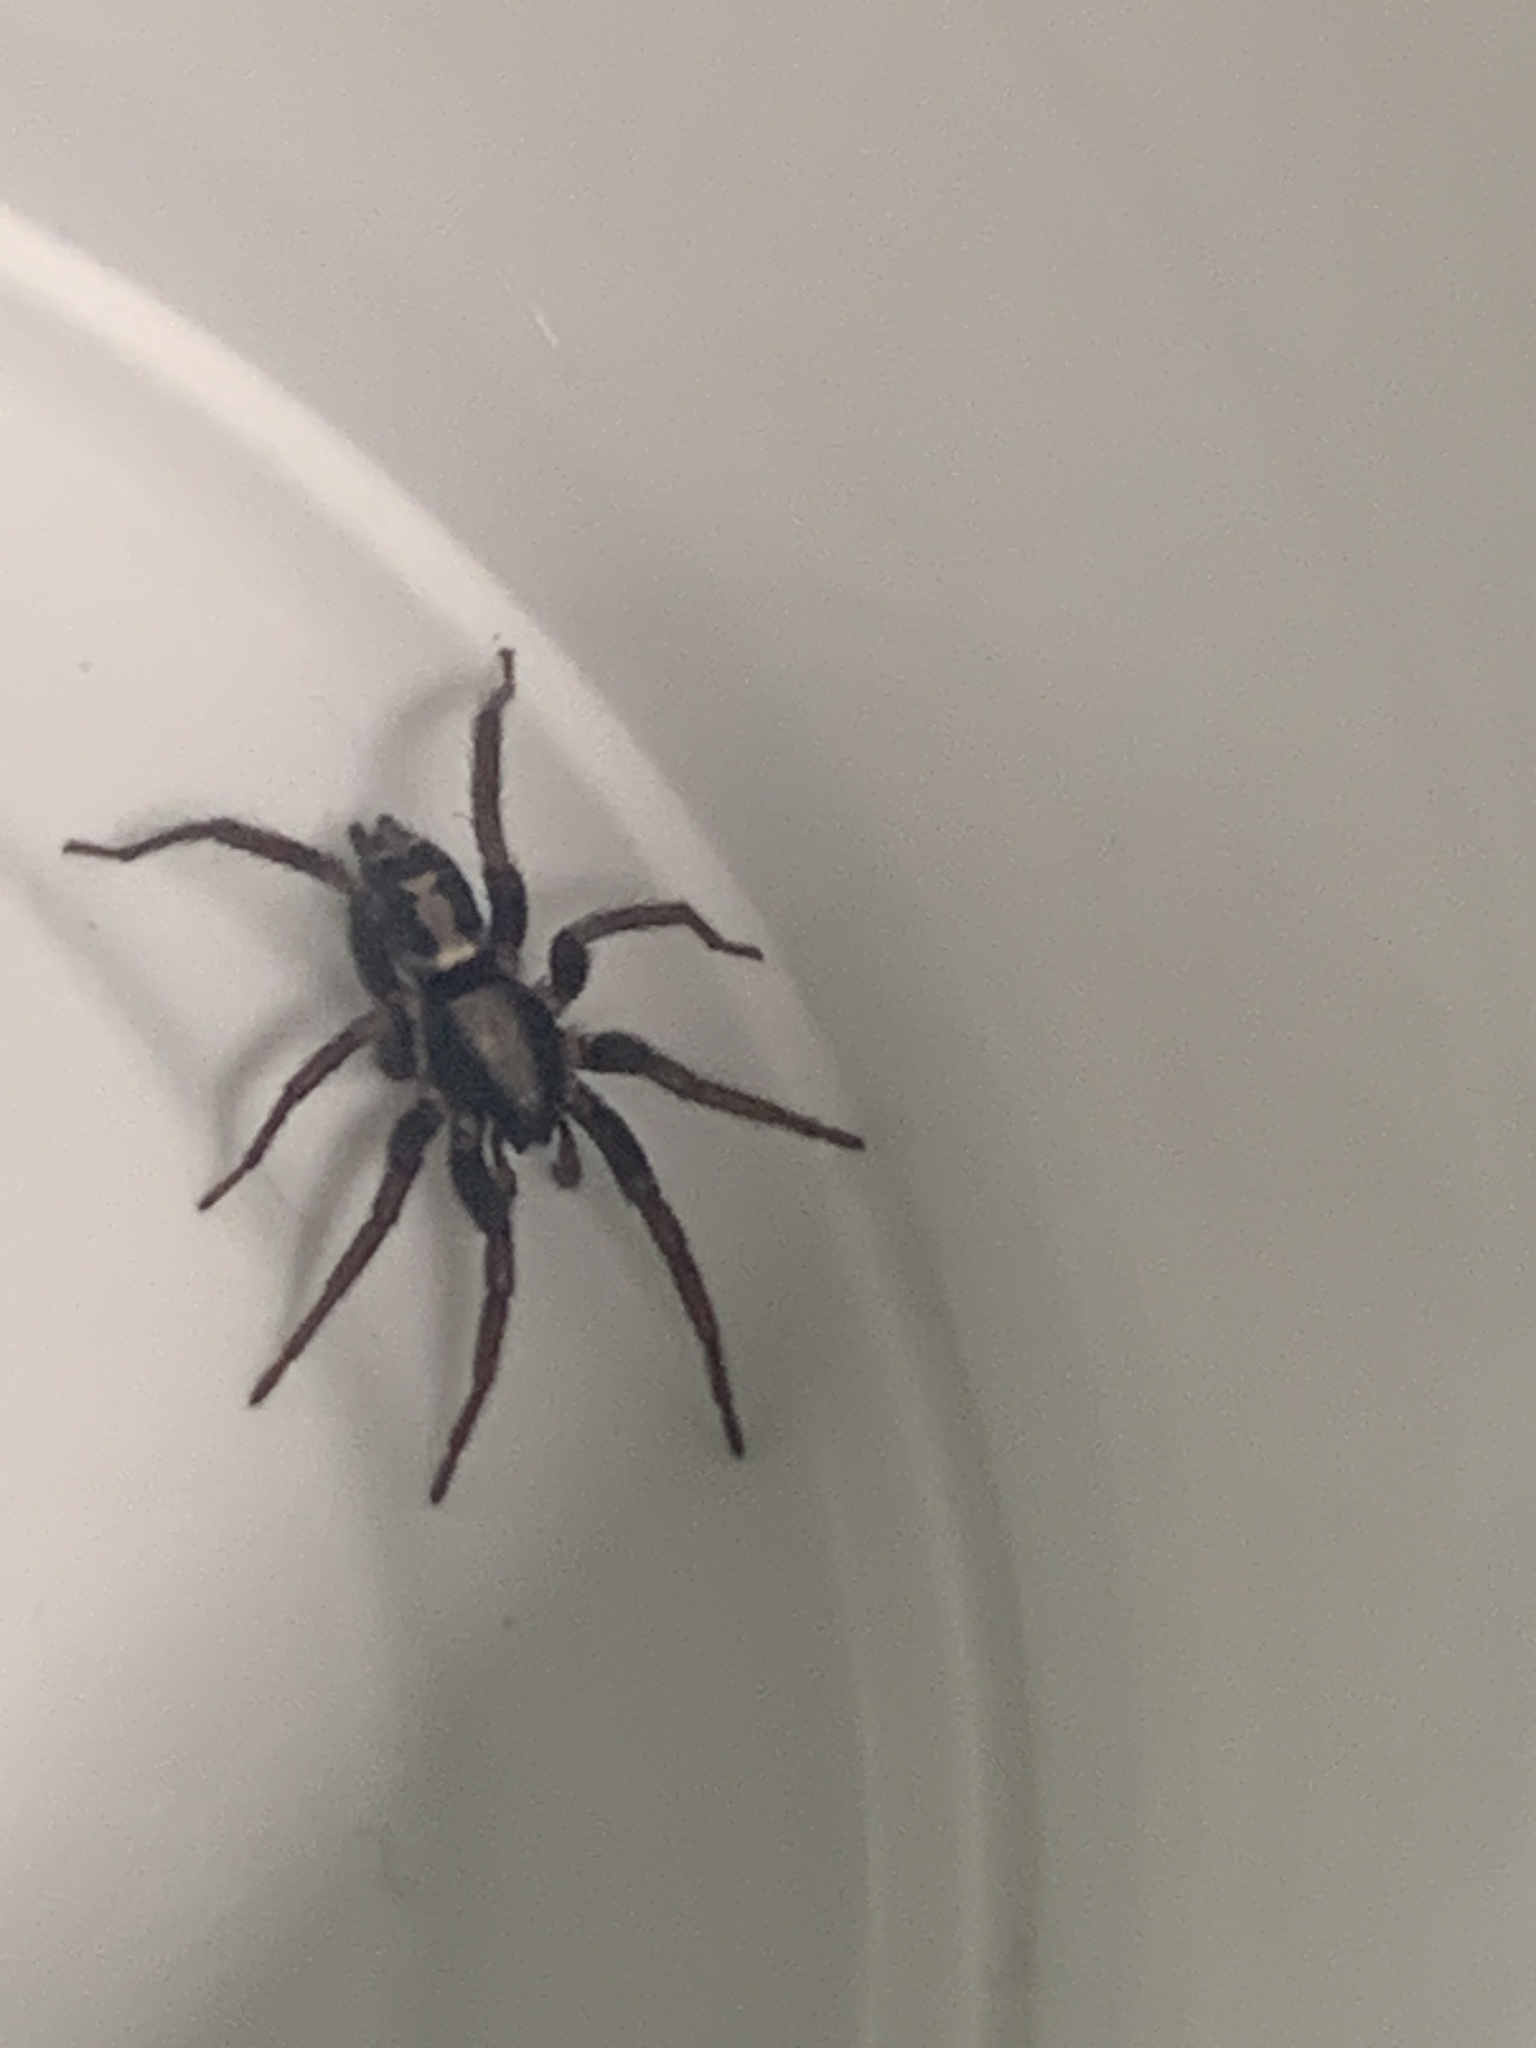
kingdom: Animalia
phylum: Arthropoda
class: Arachnida
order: Araneae
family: Gnaphosidae
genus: Herpyllus
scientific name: Herpyllus ecclesiasticus
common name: Eastern parson spider
